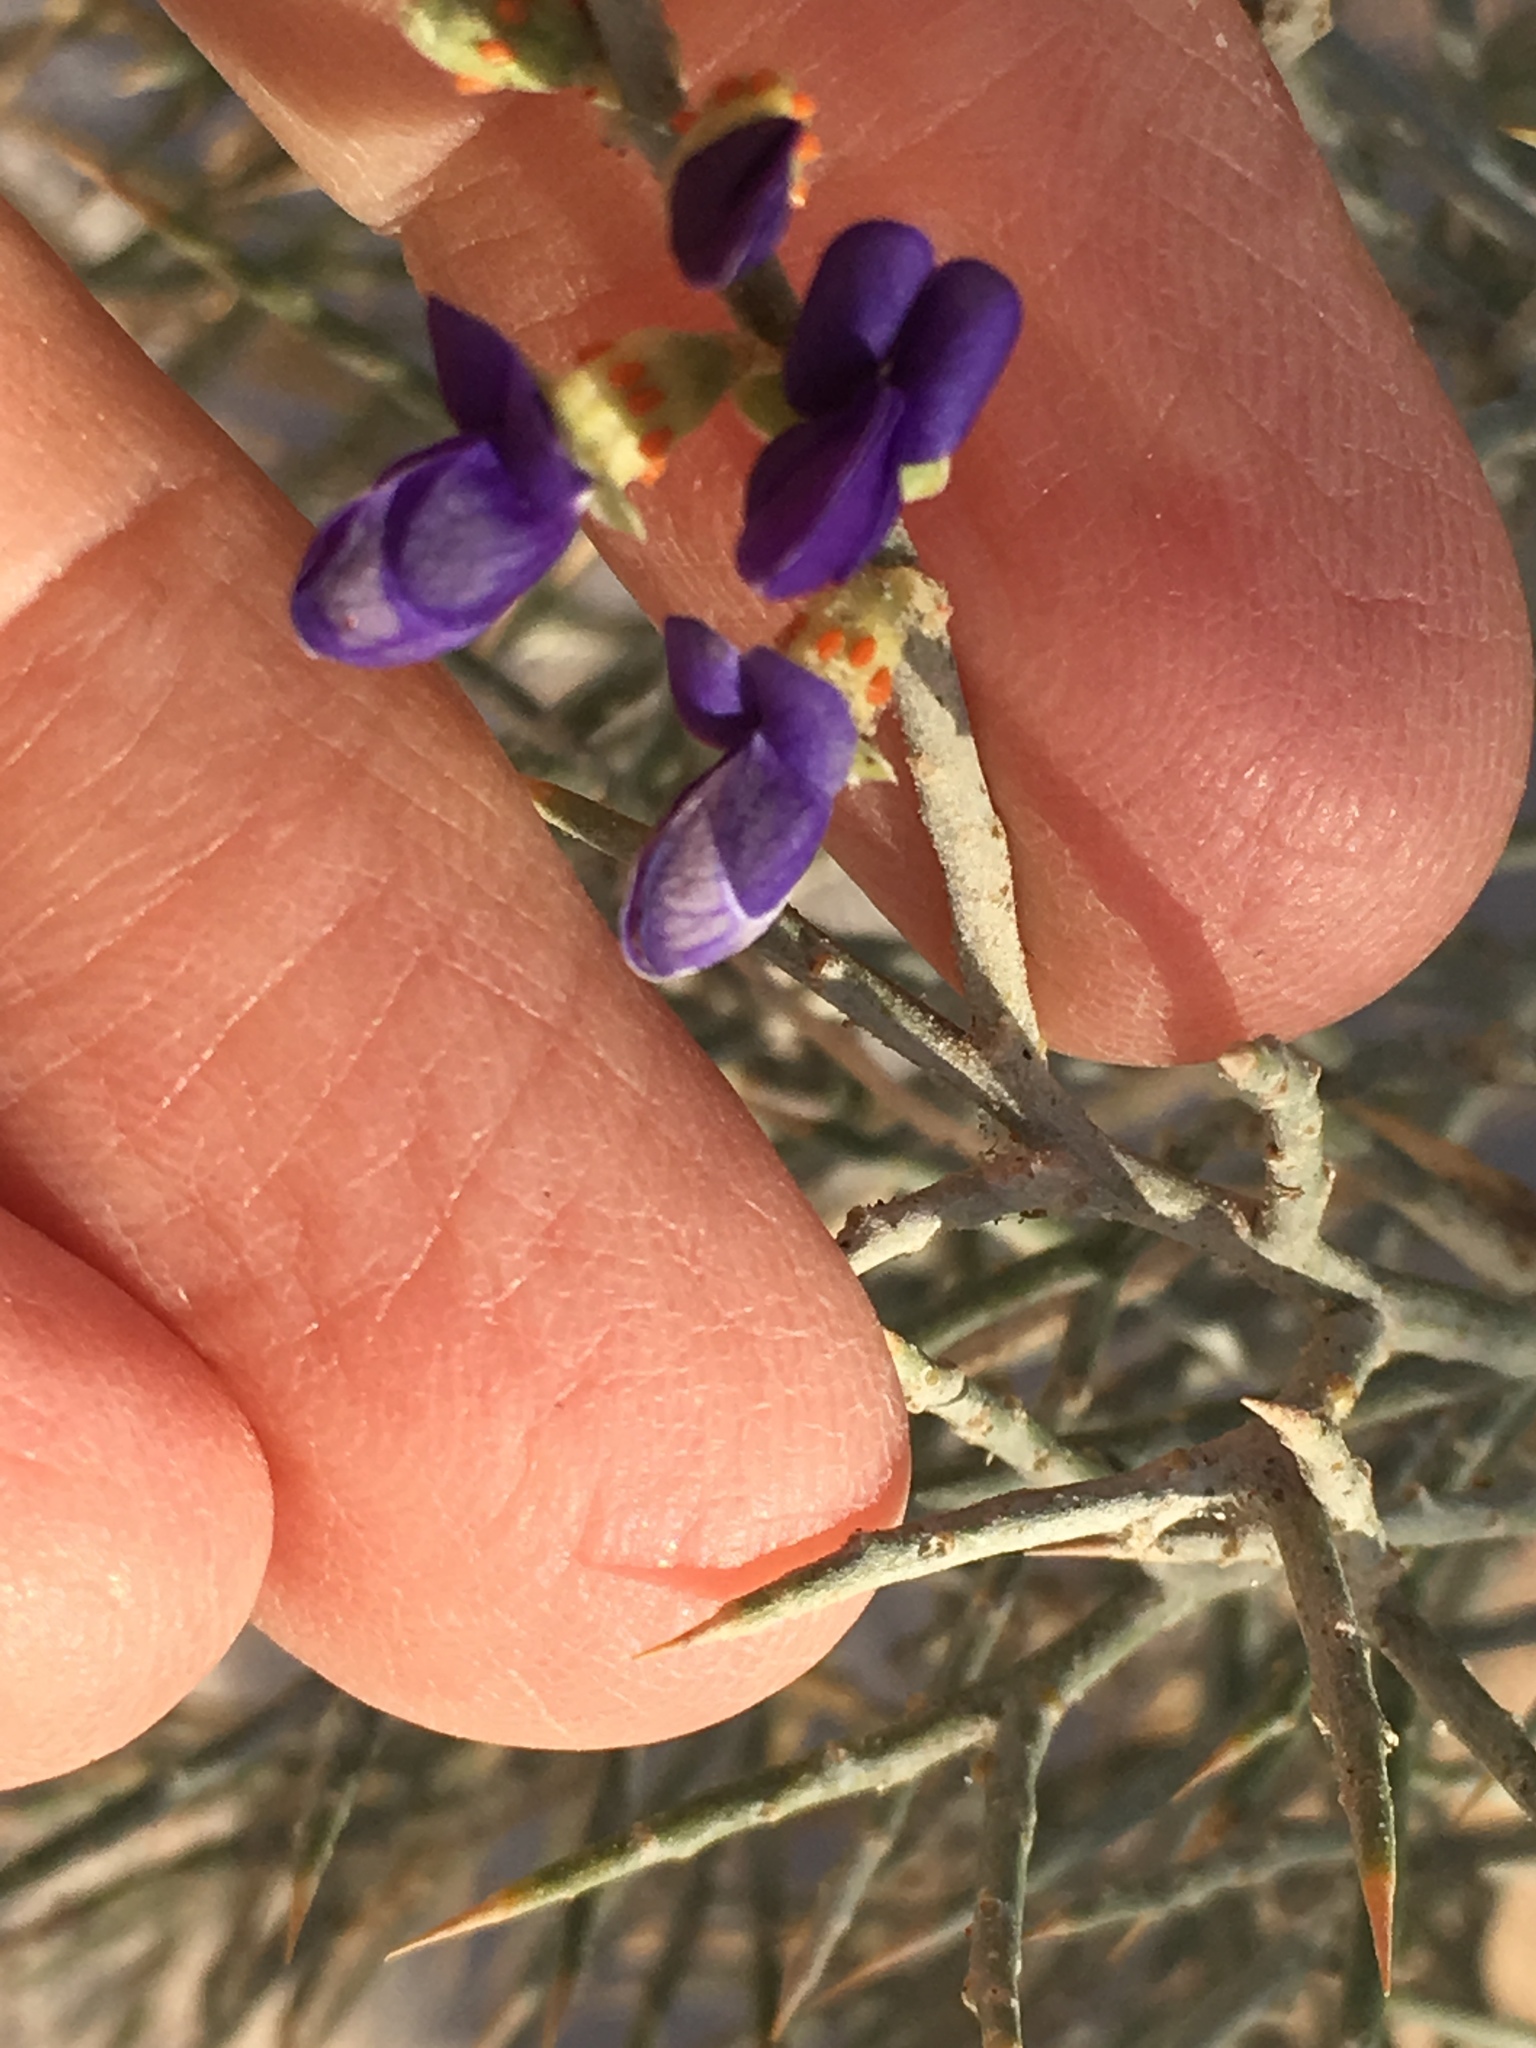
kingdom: Plantae
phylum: Tracheophyta
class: Magnoliopsida
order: Fabales
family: Fabaceae
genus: Psorothamnus
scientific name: Psorothamnus spinosus
